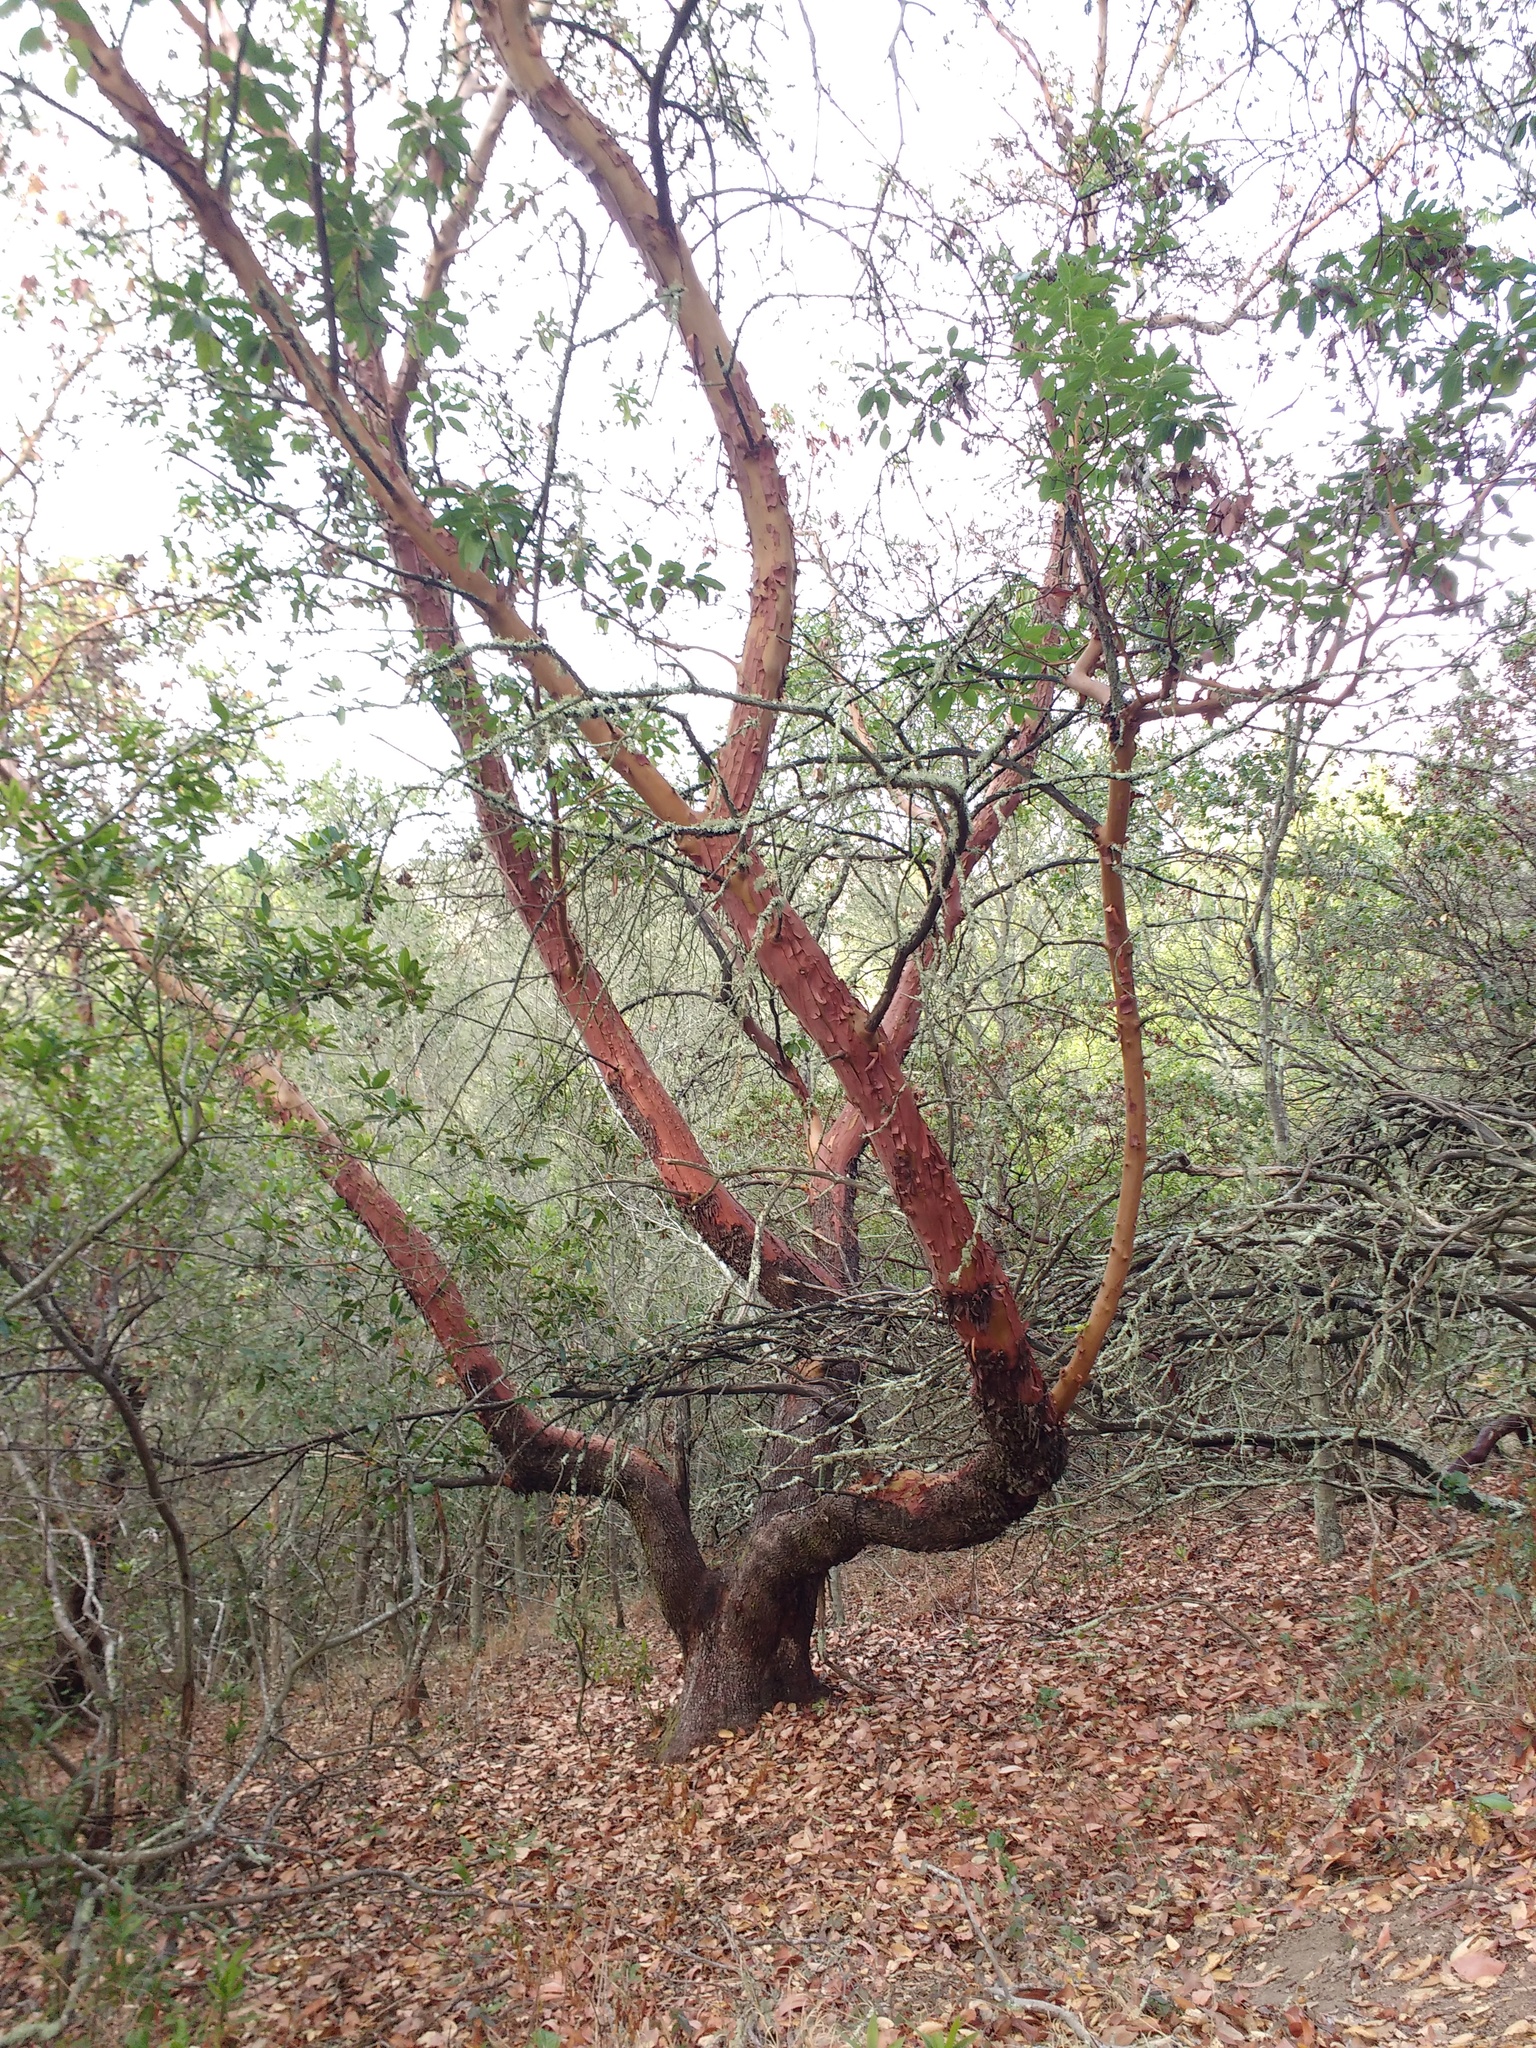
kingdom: Plantae
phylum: Tracheophyta
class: Magnoliopsida
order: Ericales
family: Ericaceae
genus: Arbutus
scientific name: Arbutus menziesii
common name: Pacific madrone
